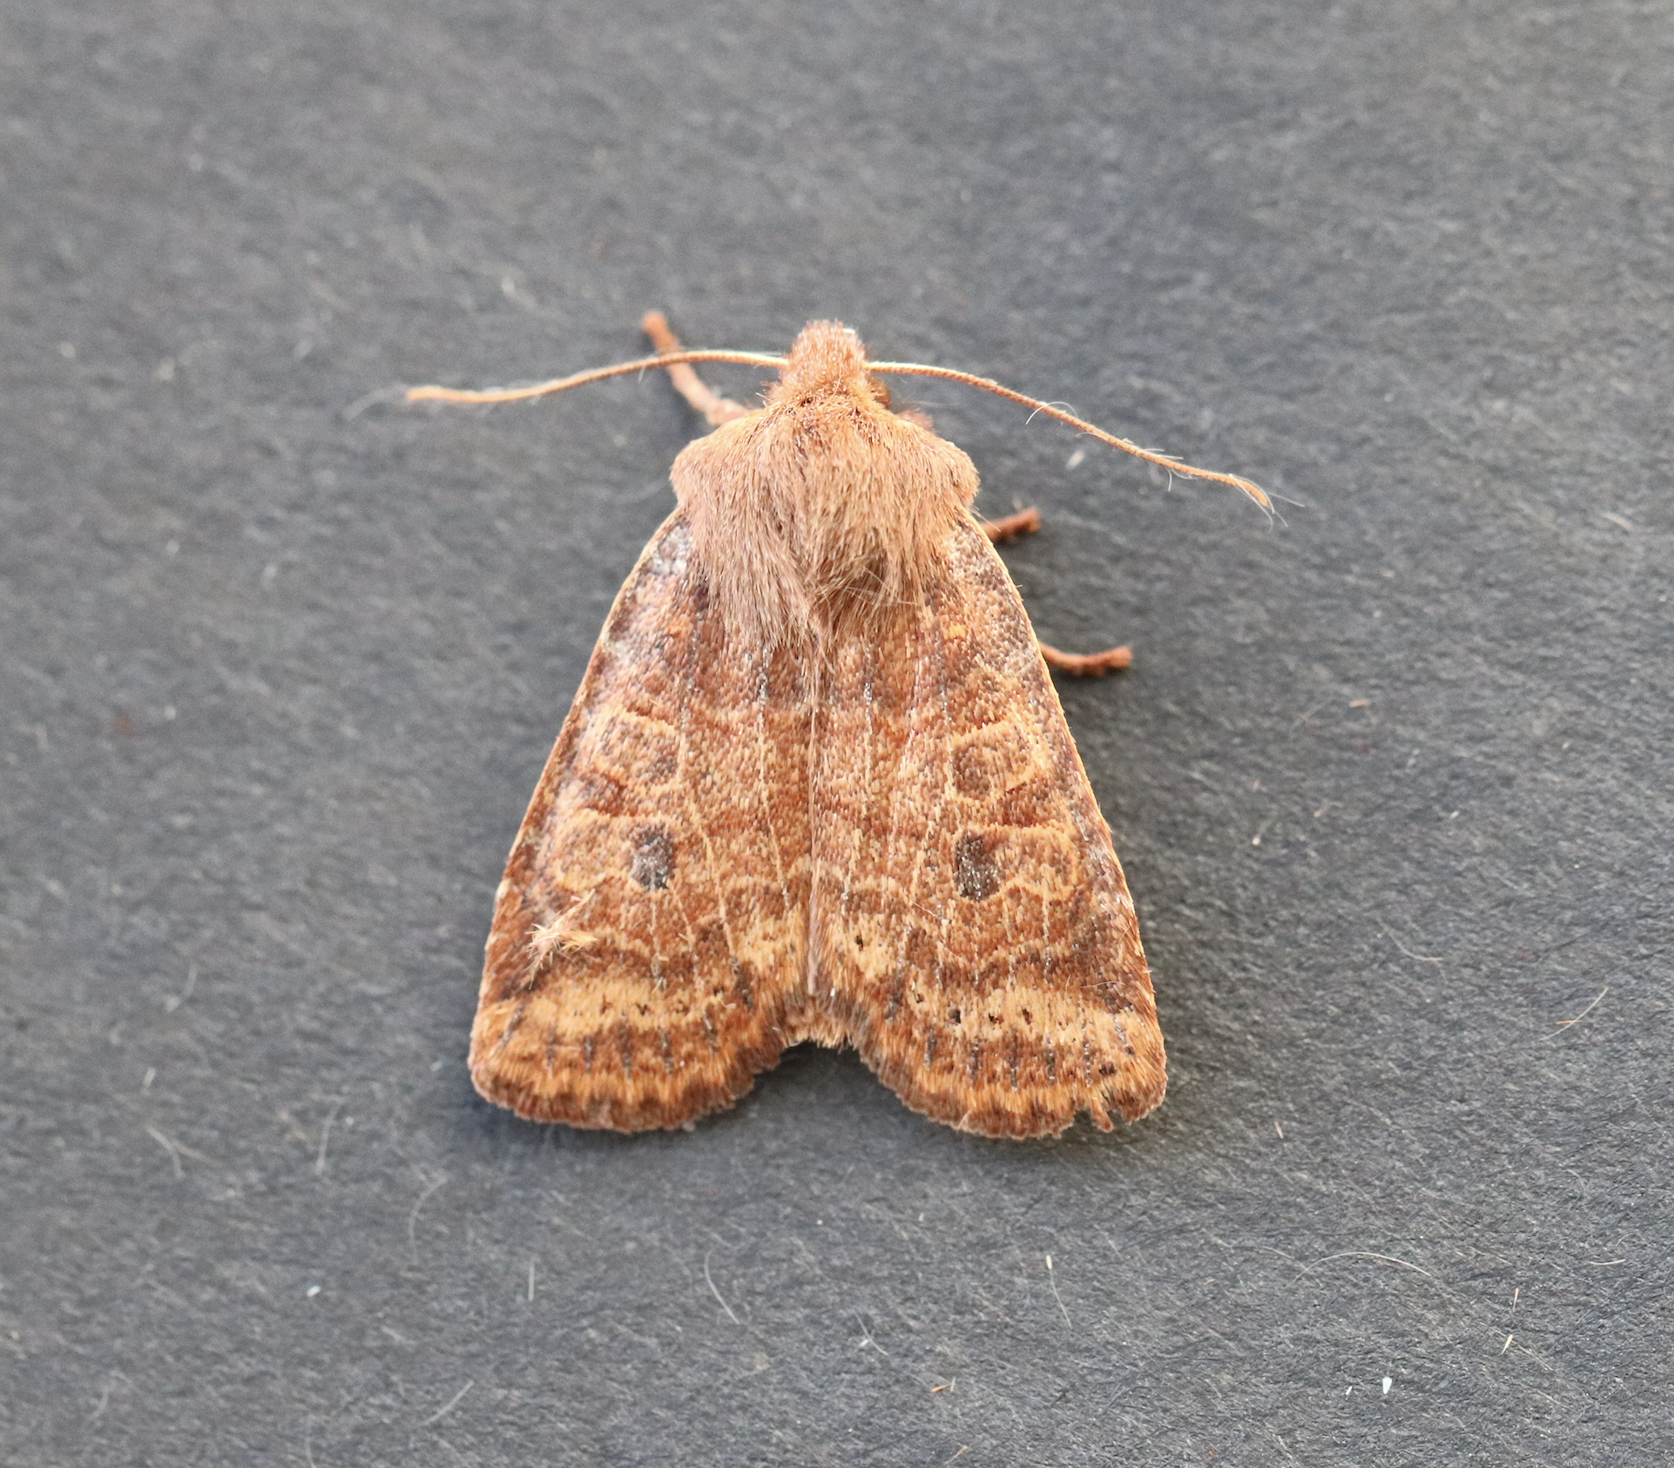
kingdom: Animalia
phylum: Arthropoda
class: Insecta
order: Lepidoptera
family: Noctuidae
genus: Conistra
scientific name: Conistra vaccinii
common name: Chestnut
